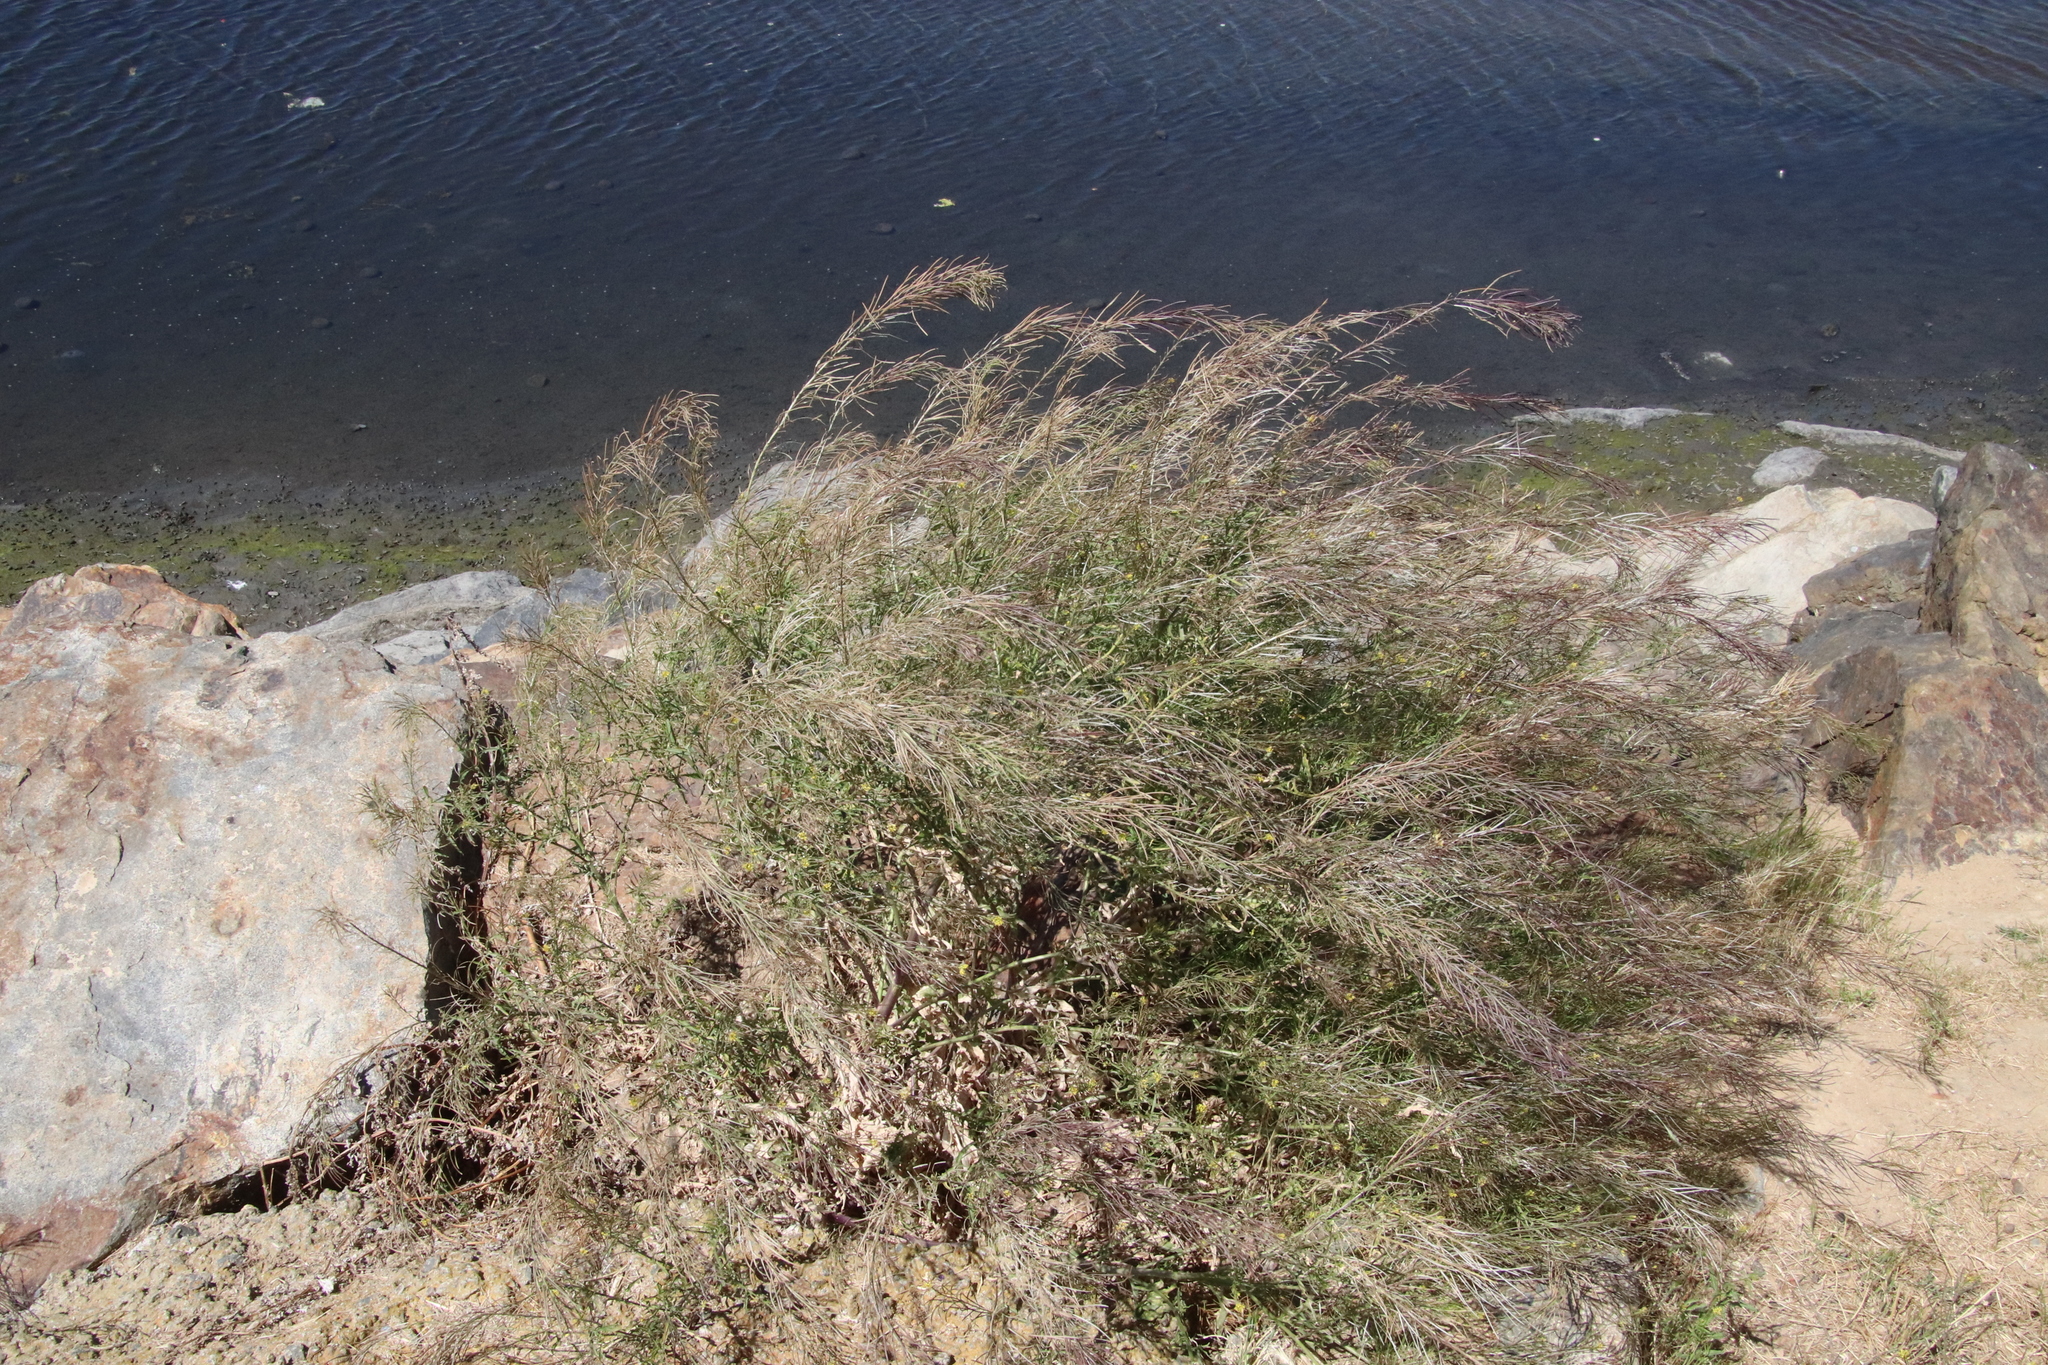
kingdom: Plantae
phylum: Tracheophyta
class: Magnoliopsida
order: Brassicales
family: Brassicaceae
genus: Sisymbrium
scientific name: Sisymbrium irio
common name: London rocket
